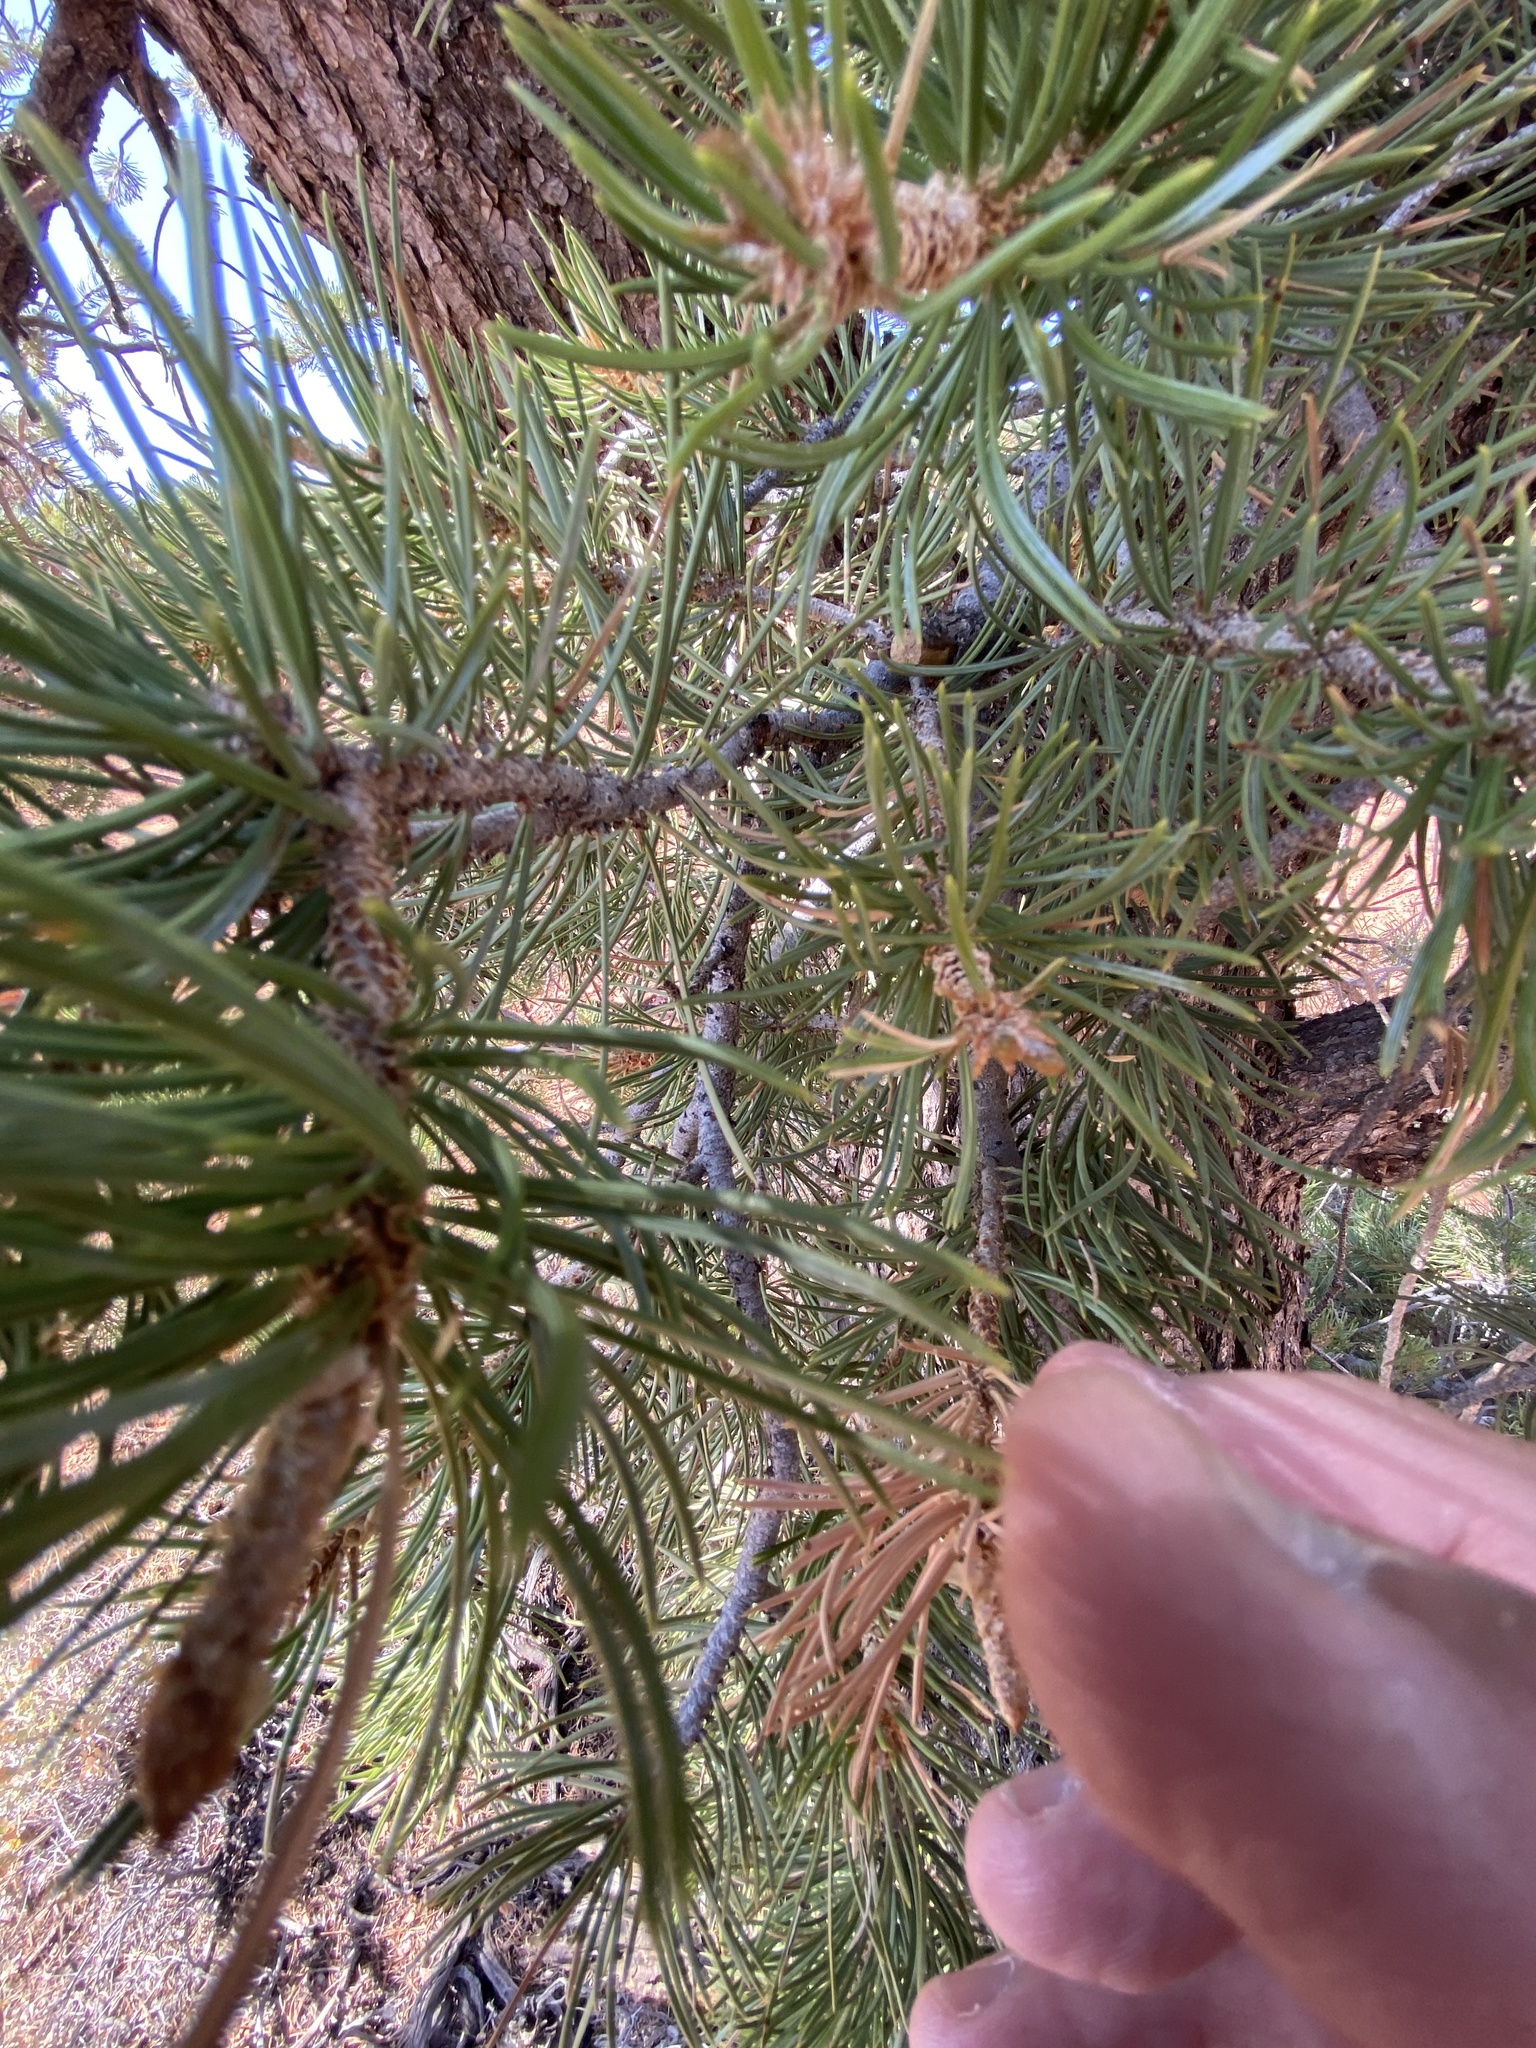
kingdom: Plantae
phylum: Tracheophyta
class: Pinopsida
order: Pinales
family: Pinaceae
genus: Pinus
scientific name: Pinus edulis
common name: Colorado pinyon
